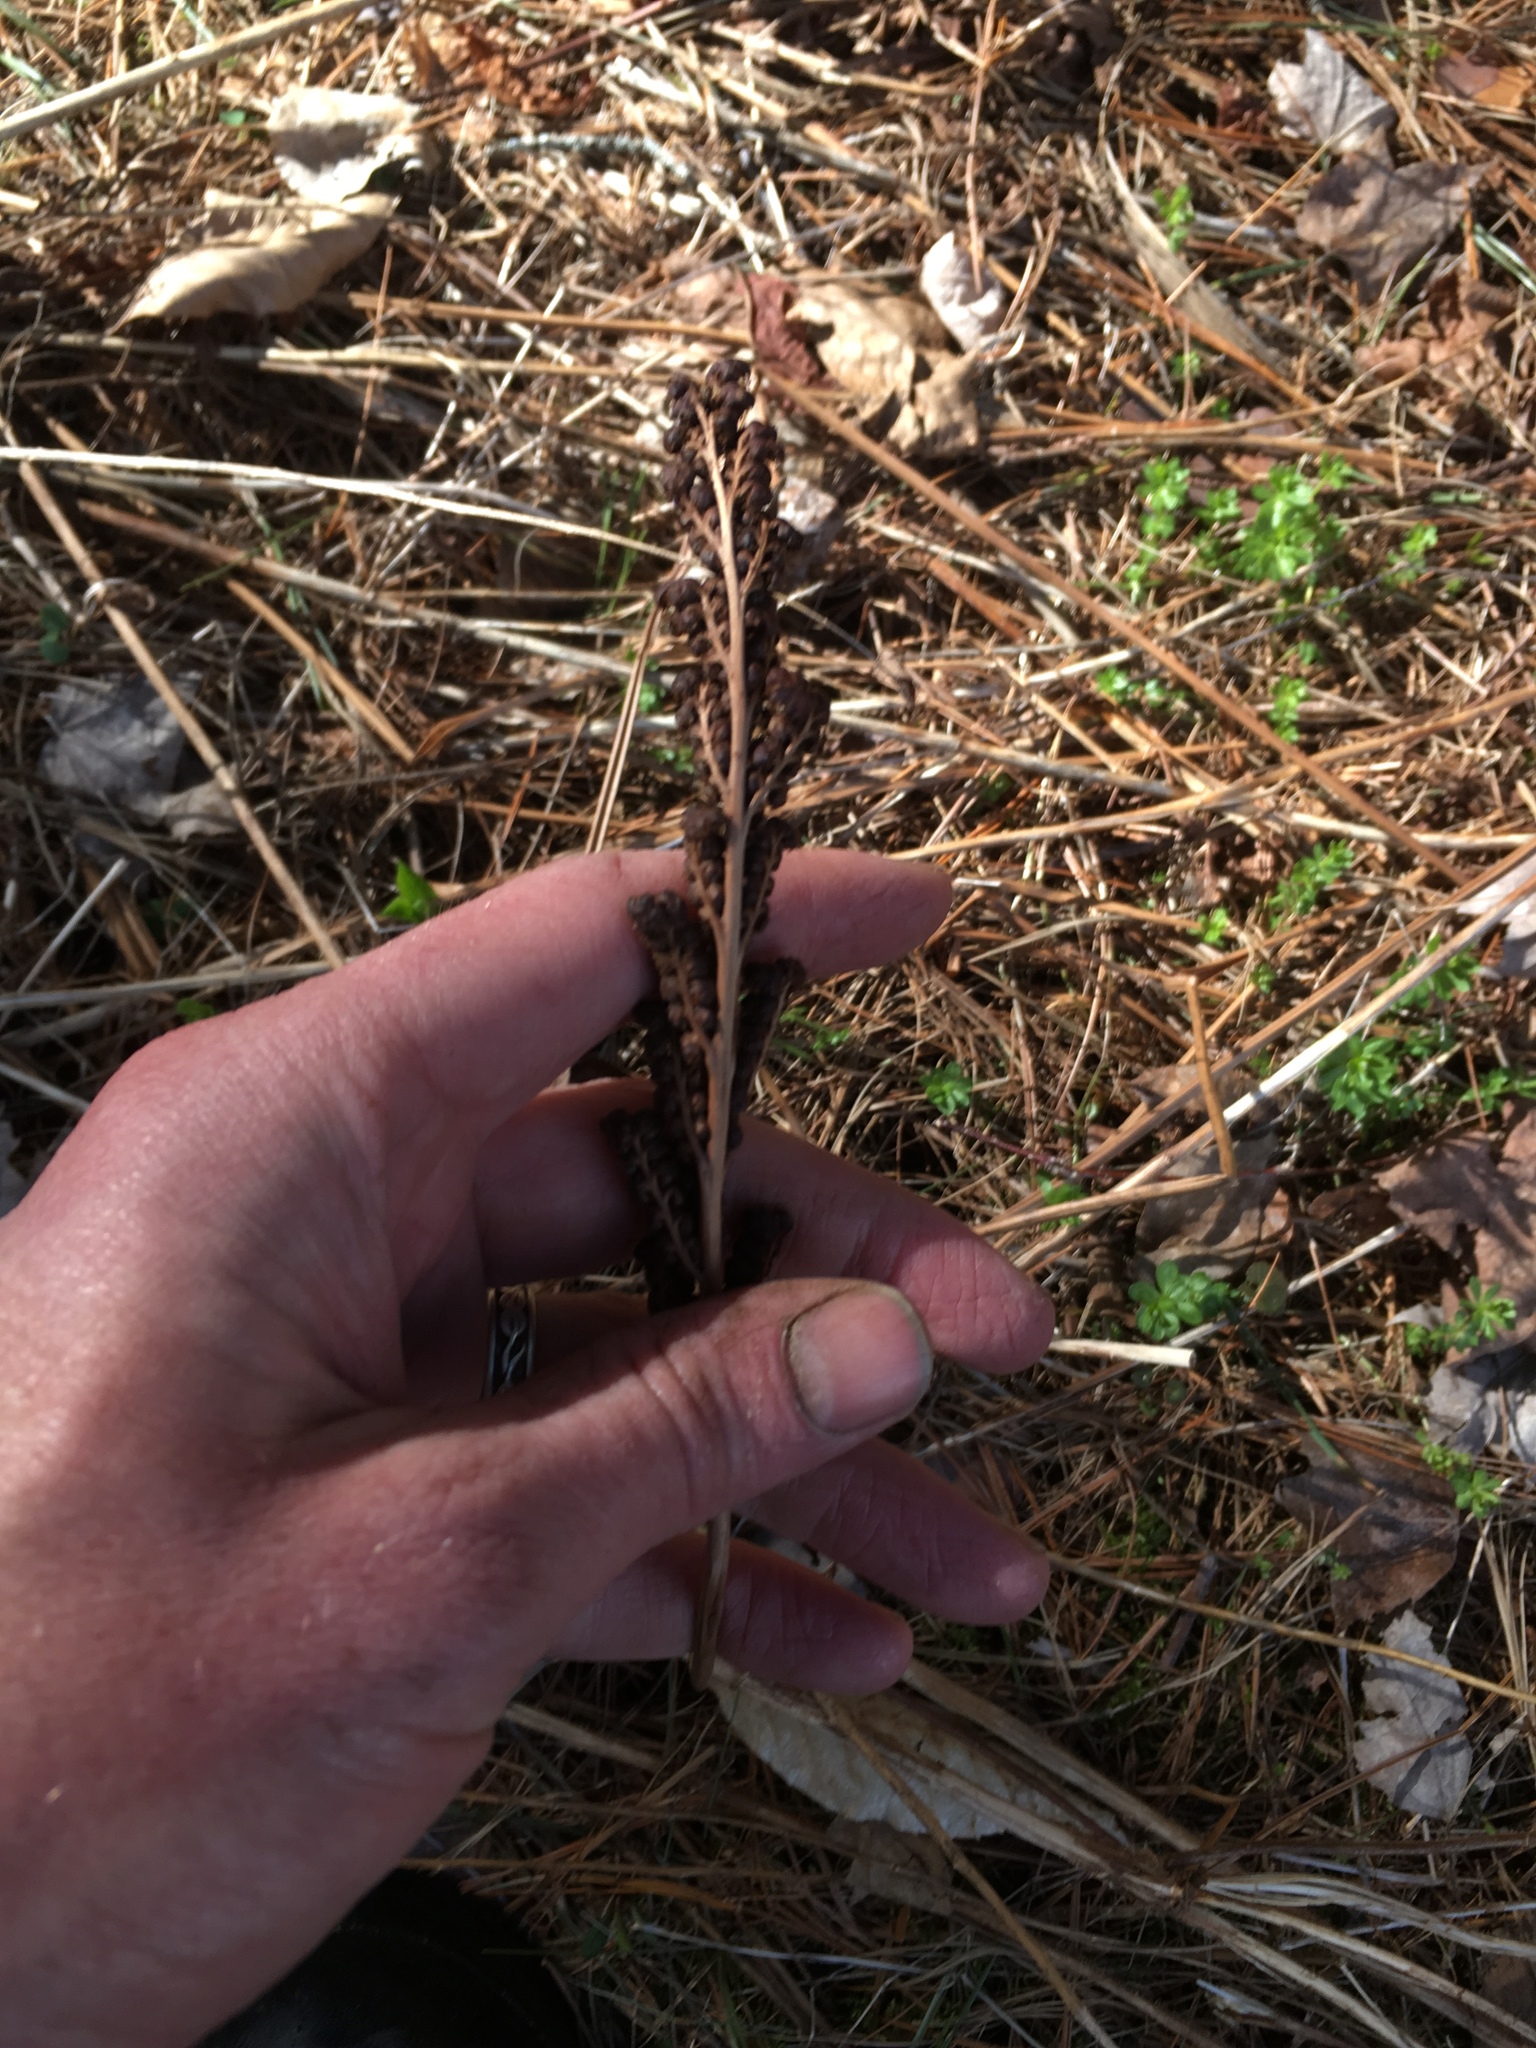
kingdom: Plantae
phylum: Tracheophyta
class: Polypodiopsida
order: Polypodiales
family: Onocleaceae
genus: Onoclea
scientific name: Onoclea sensibilis
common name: Sensitive fern
